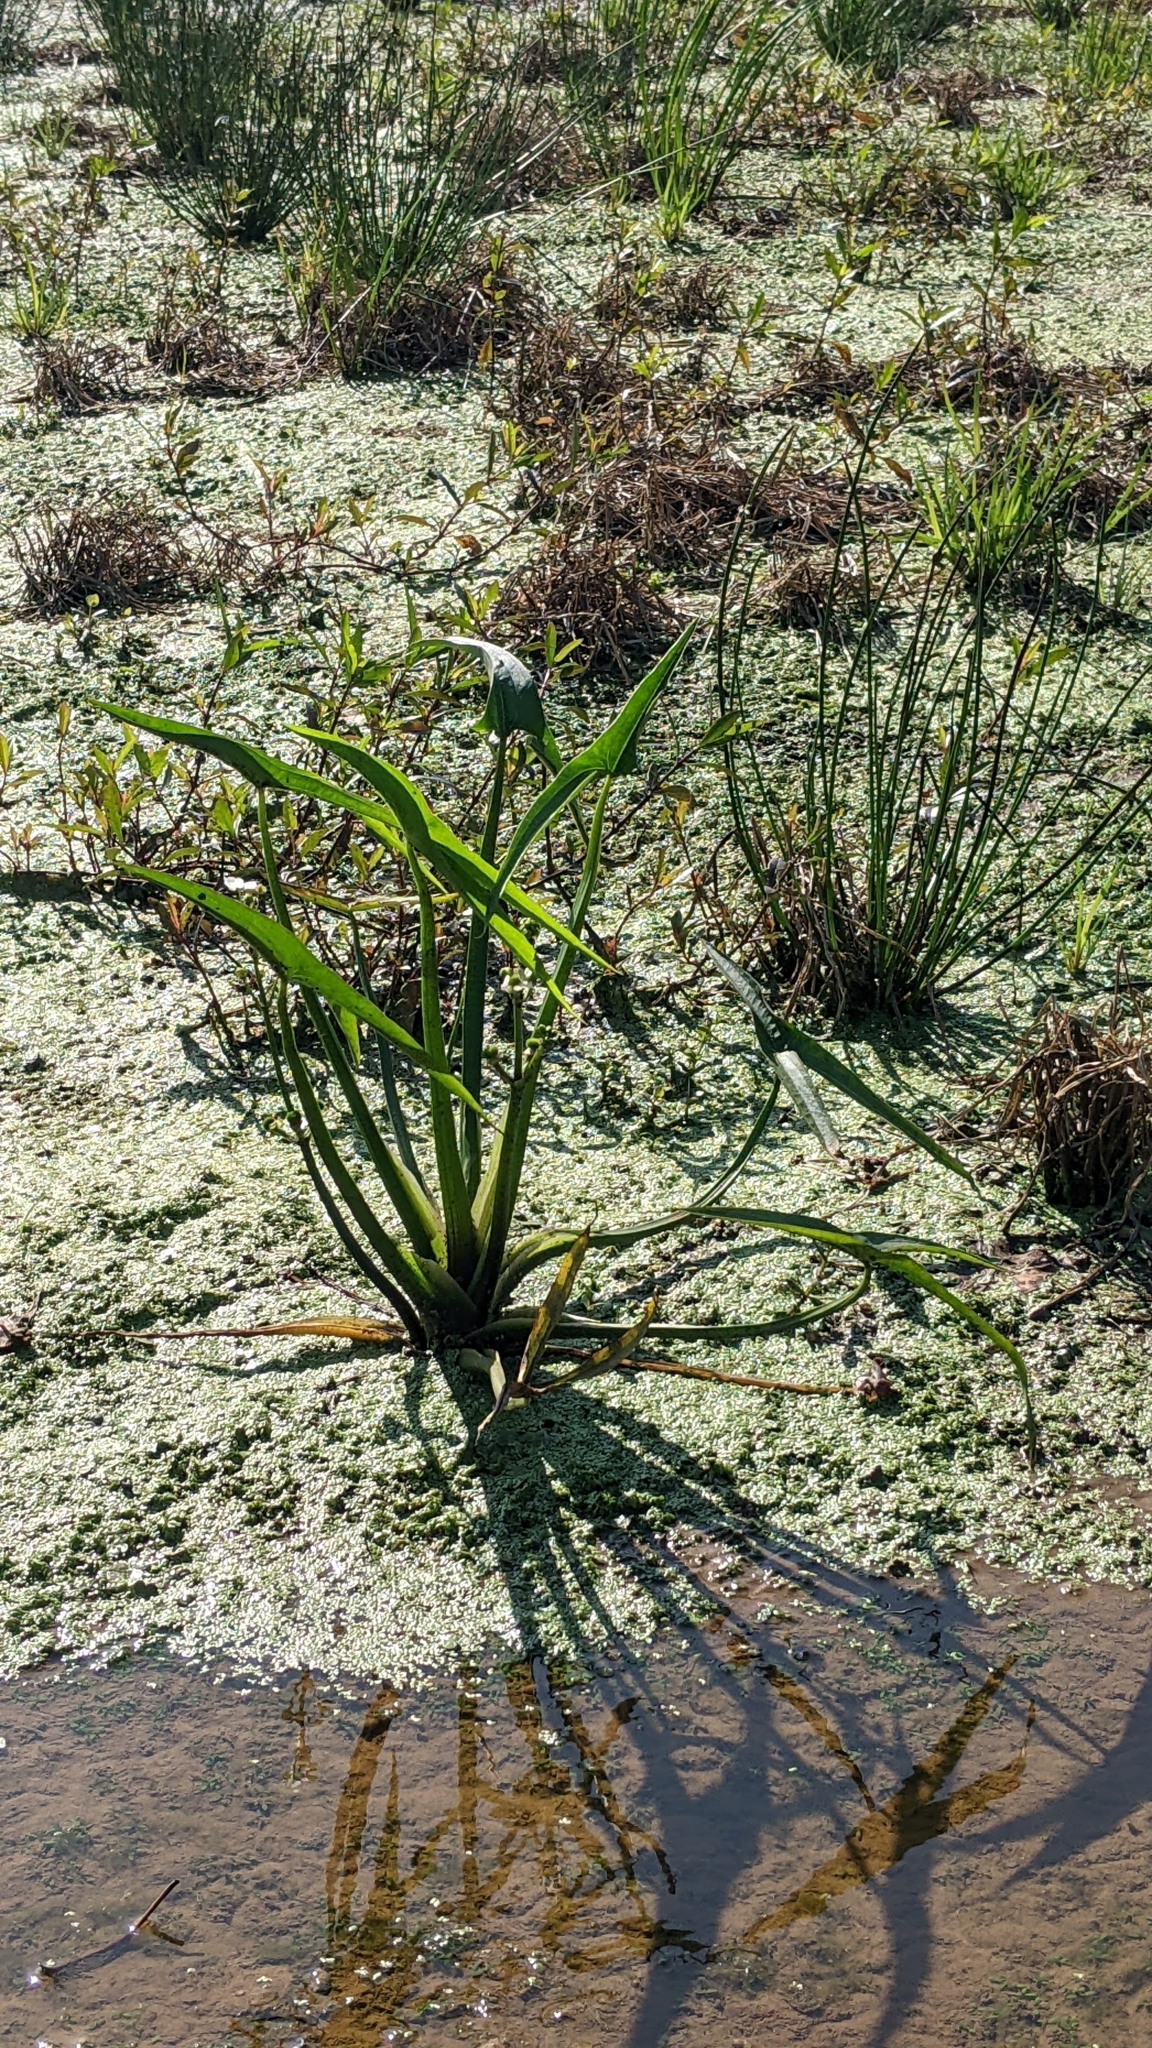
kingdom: Plantae
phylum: Tracheophyta
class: Liliopsida
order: Alismatales
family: Alismataceae
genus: Sagittaria
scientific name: Sagittaria trifolia
